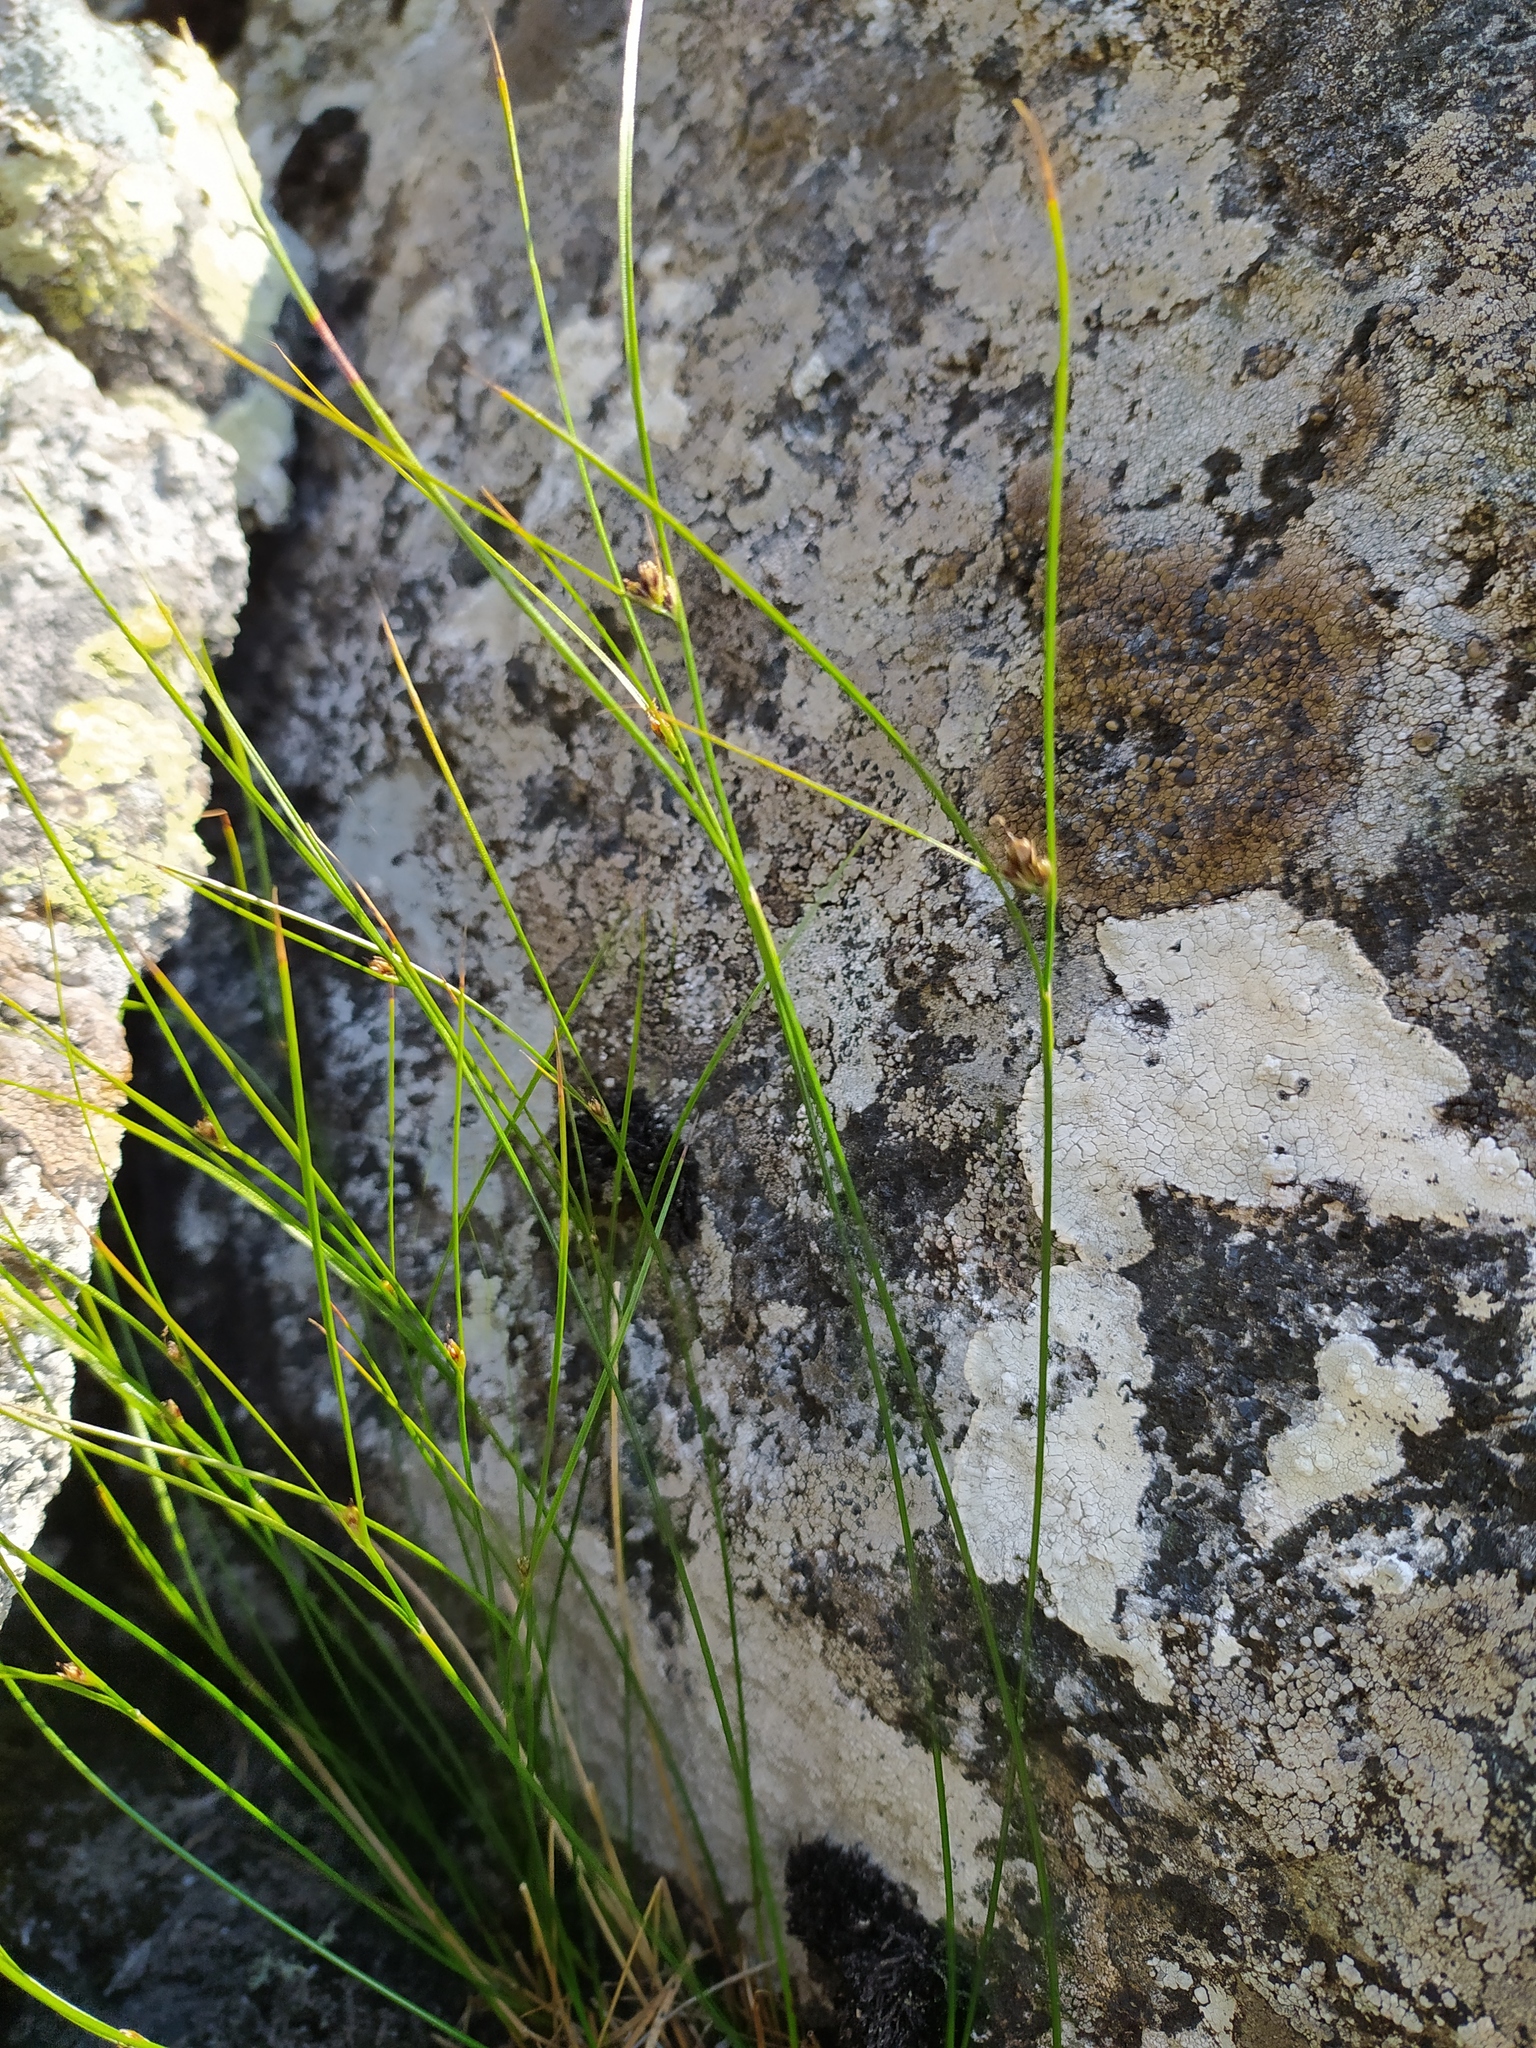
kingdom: Plantae
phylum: Tracheophyta
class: Liliopsida
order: Poales
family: Juncaceae
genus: Oreojuncus
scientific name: Oreojuncus trifidus
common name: Highland rush
